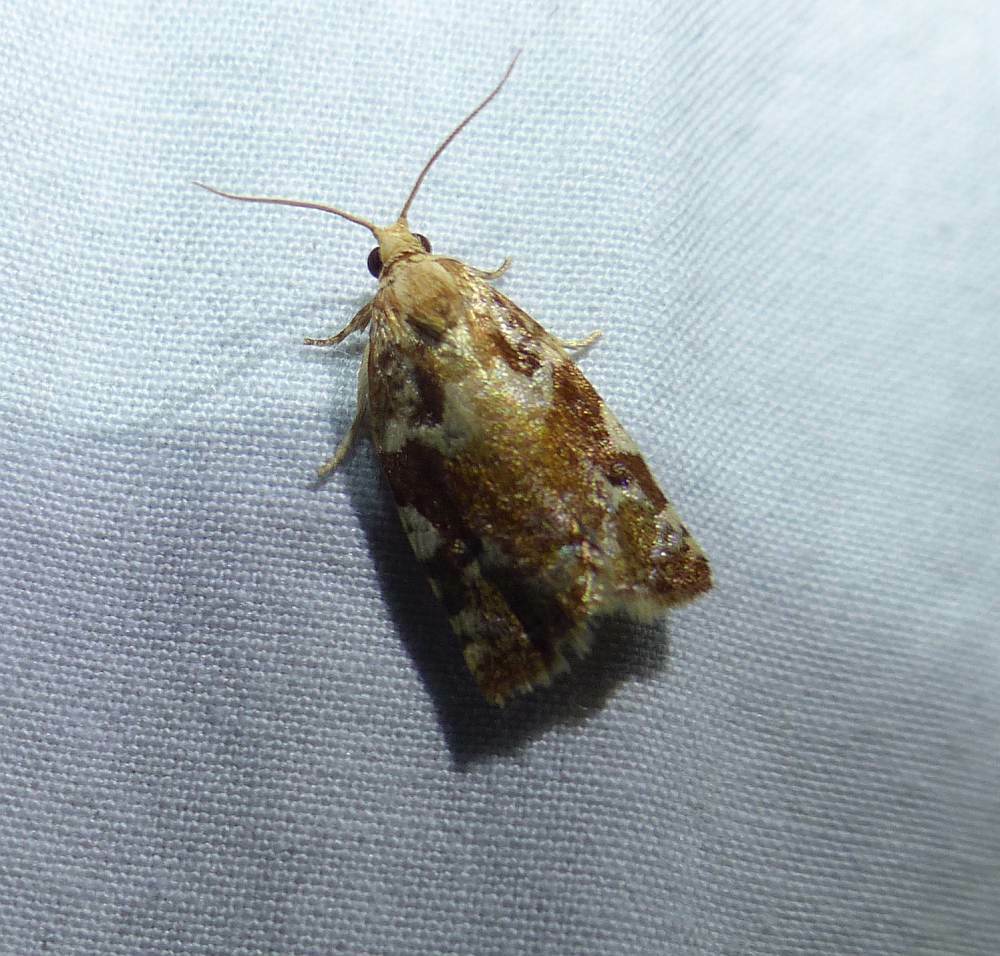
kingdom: Animalia
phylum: Arthropoda
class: Insecta
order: Lepidoptera
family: Tortricidae
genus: Archips
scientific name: Archips semiferanus
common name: Oak leafroller
